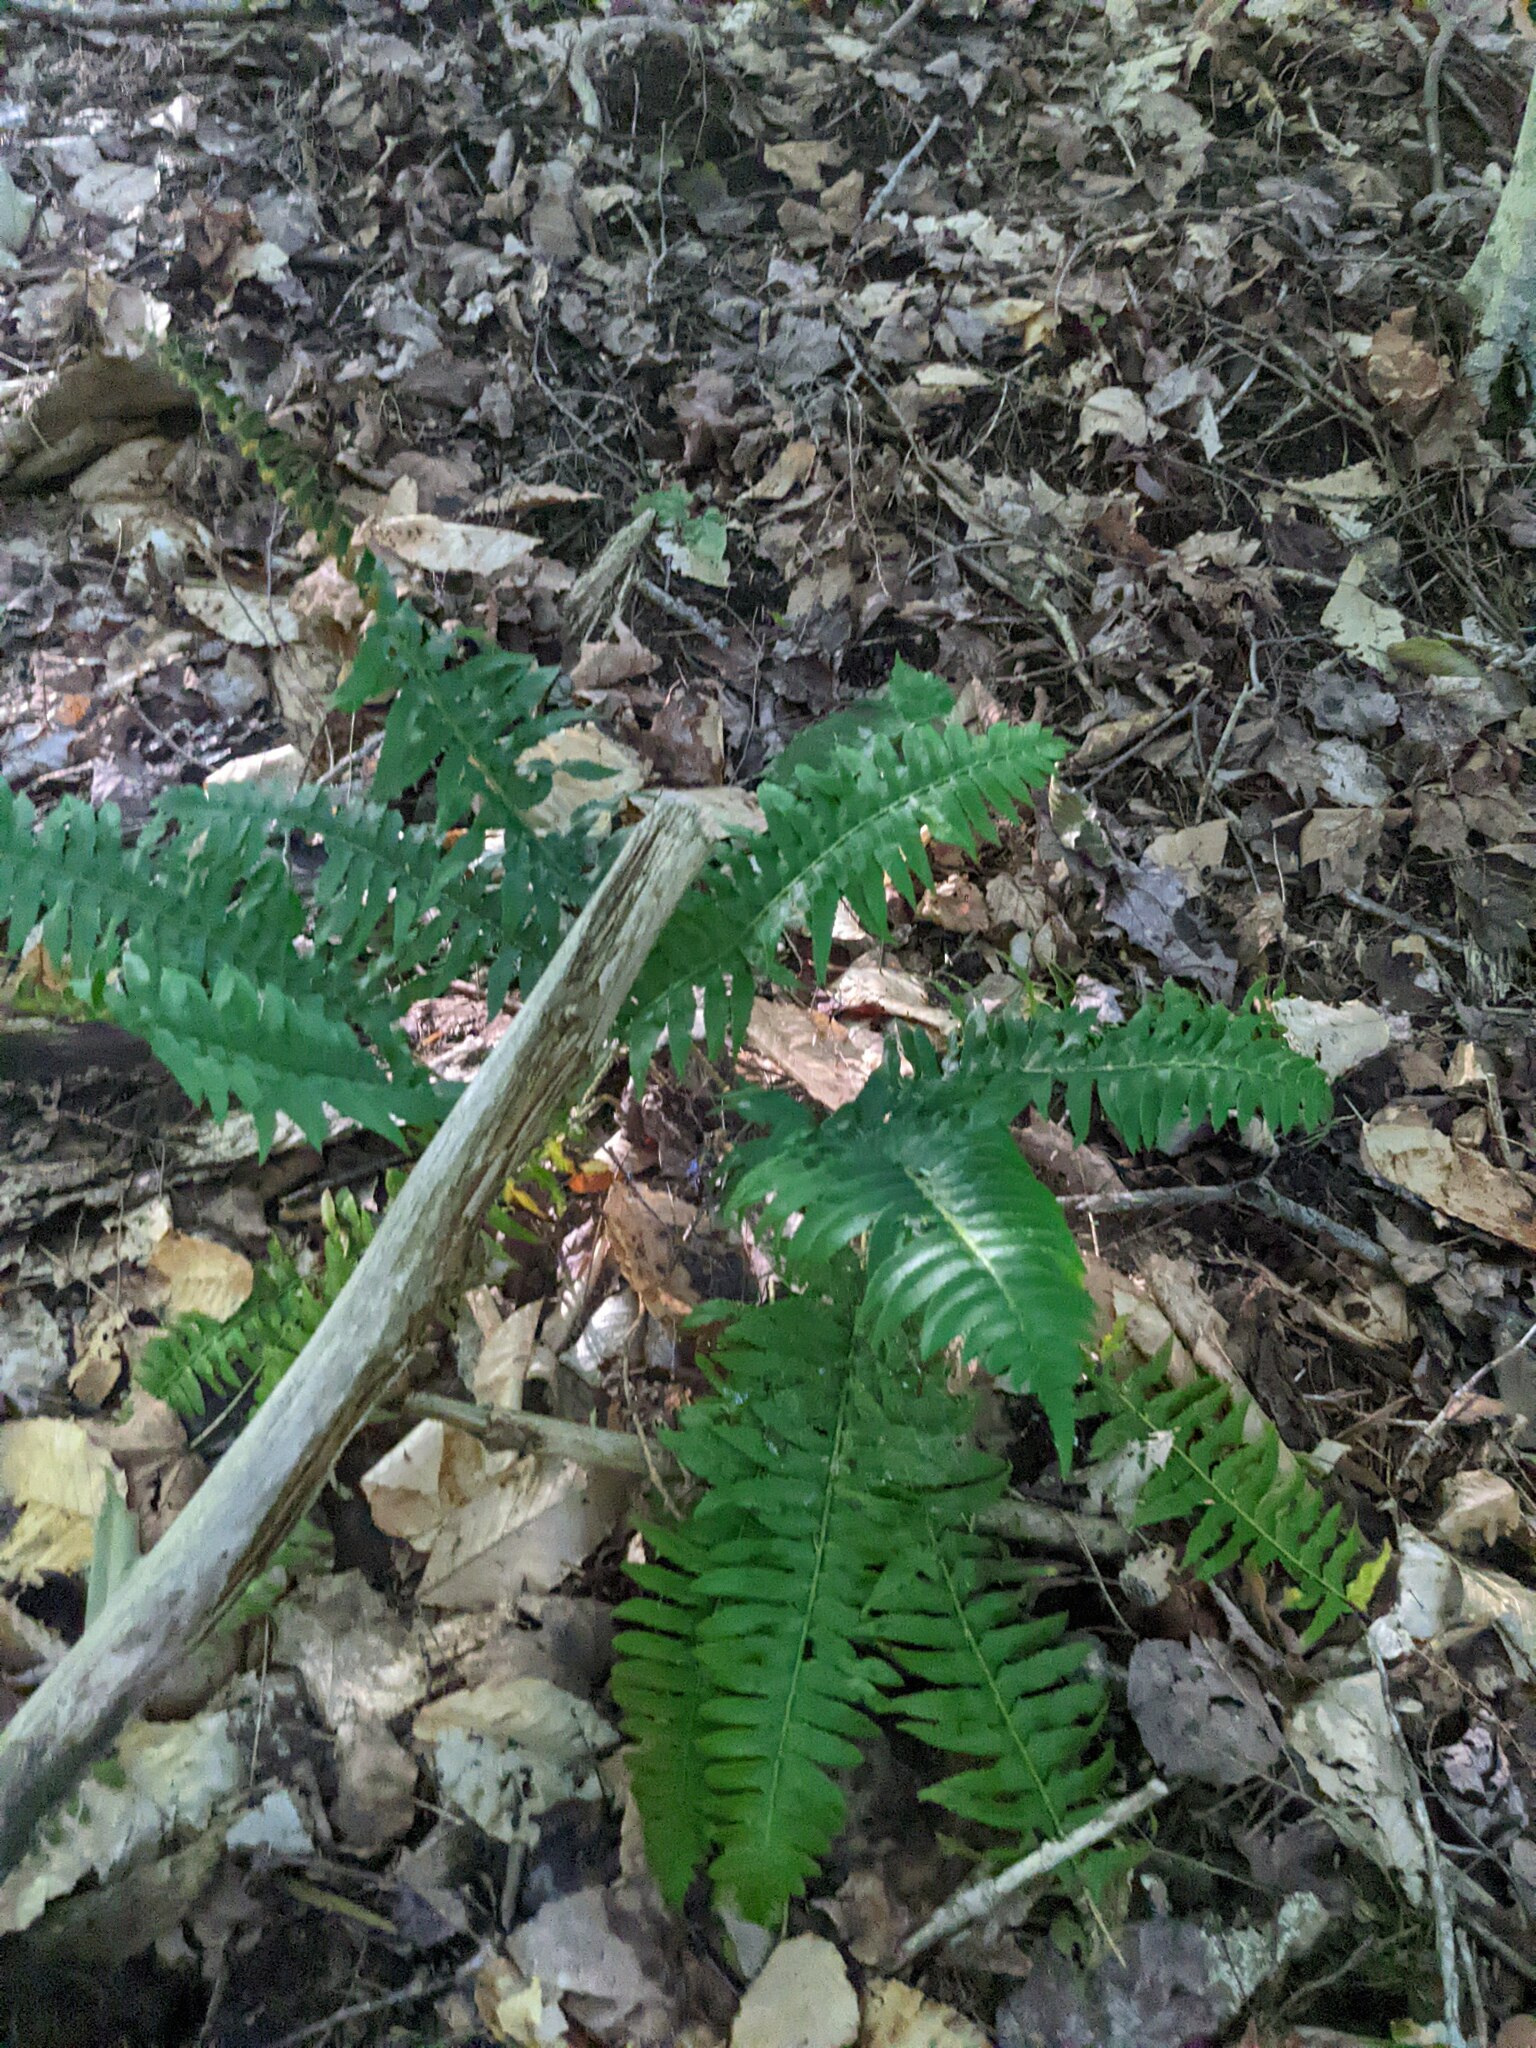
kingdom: Plantae
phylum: Tracheophyta
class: Polypodiopsida
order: Polypodiales
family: Dryopteridaceae
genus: Polystichum
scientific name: Polystichum acrostichoides
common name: Christmas fern
